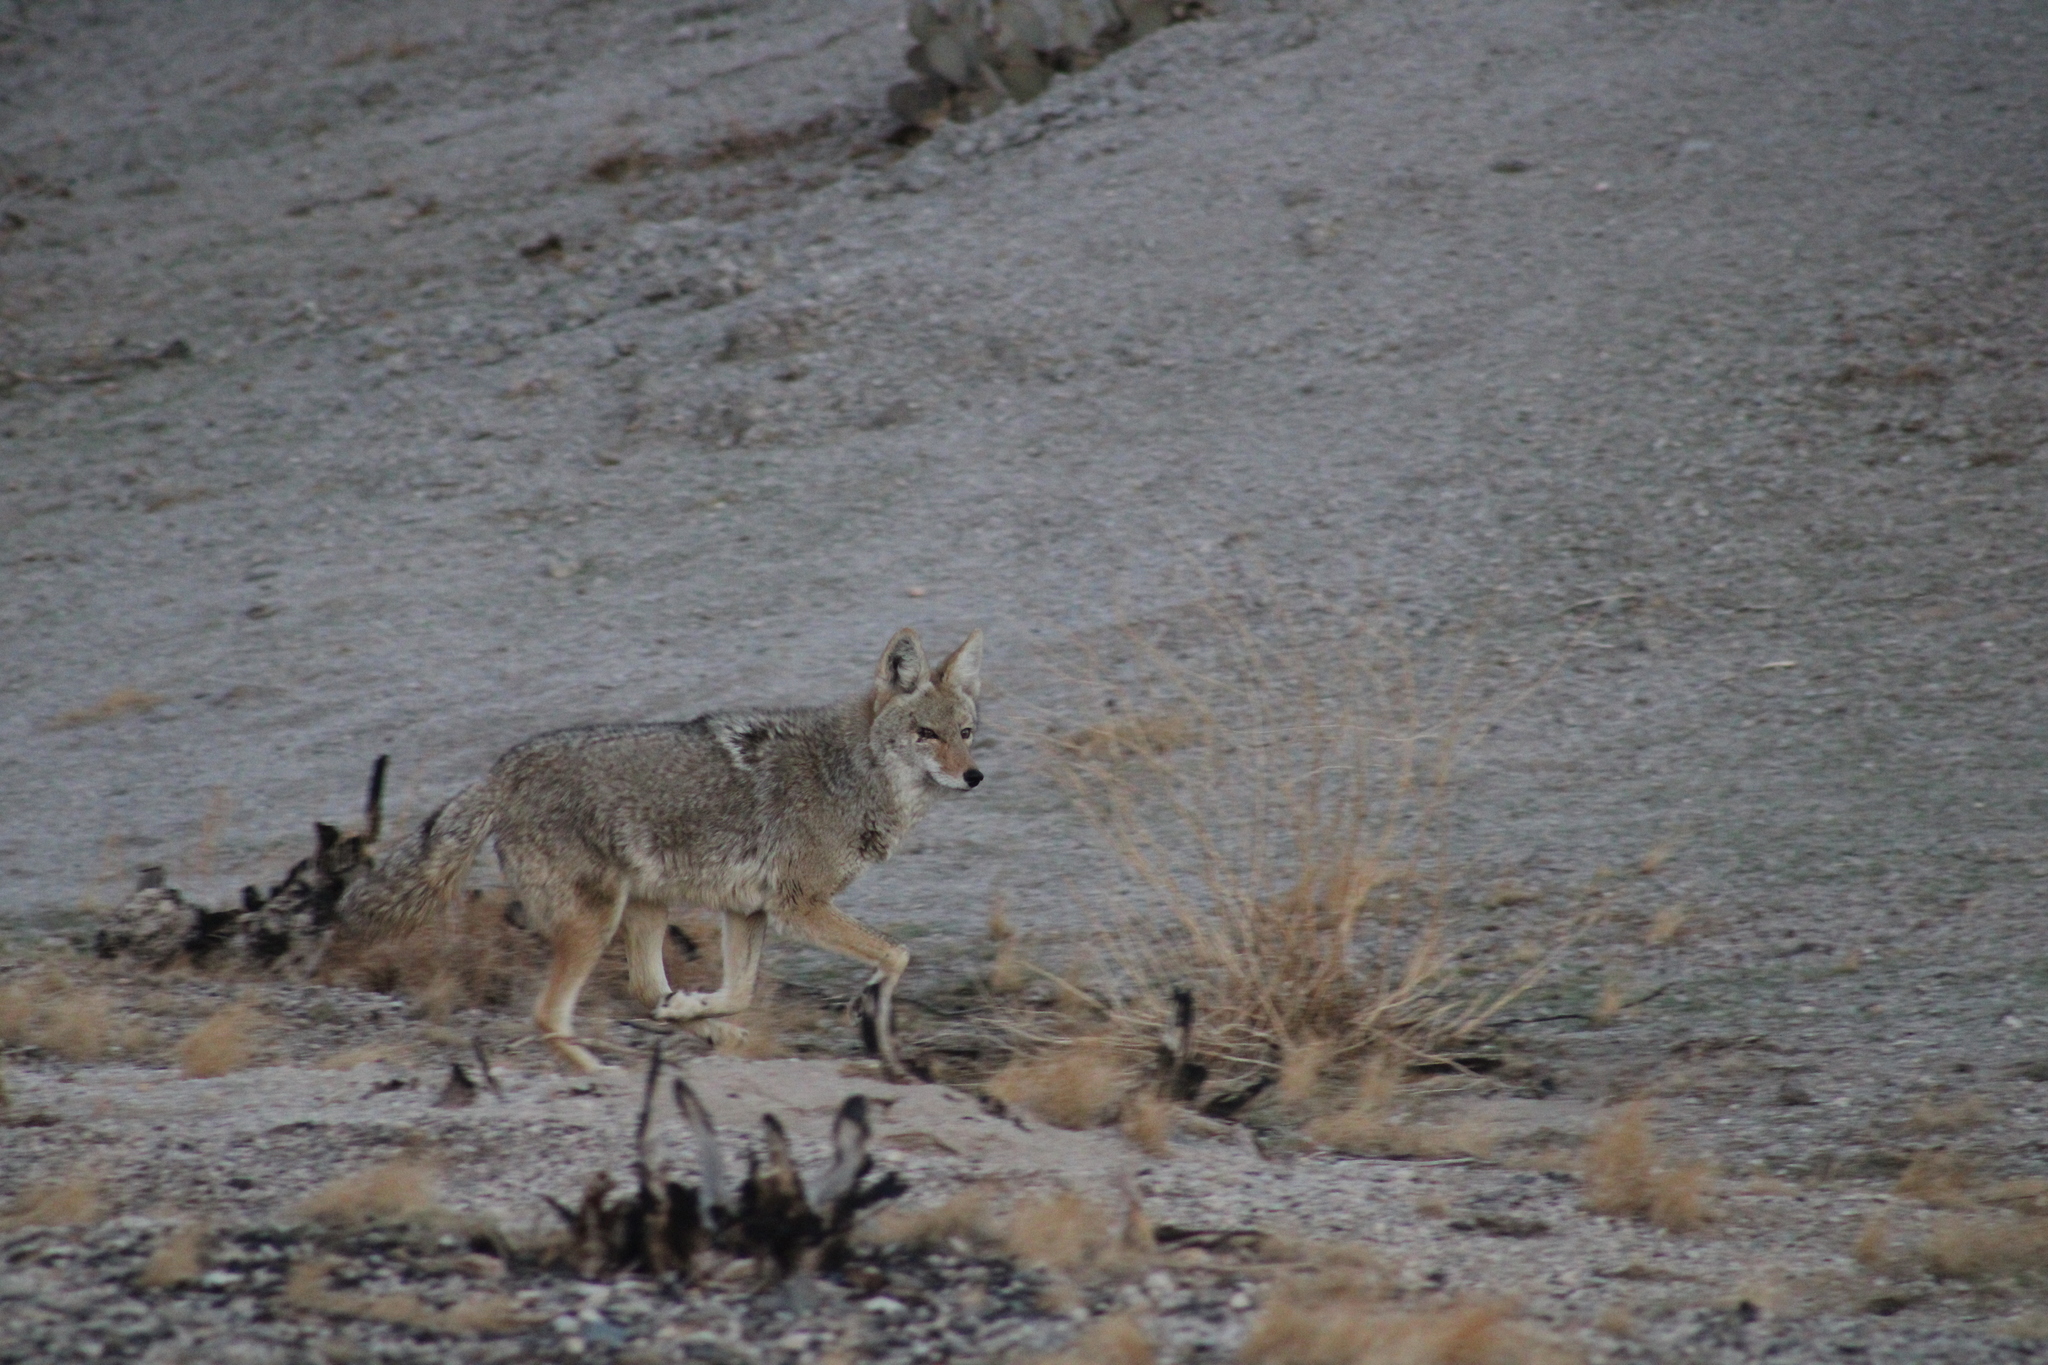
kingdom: Animalia
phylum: Chordata
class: Mammalia
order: Carnivora
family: Canidae
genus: Canis
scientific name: Canis latrans
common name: Coyote
